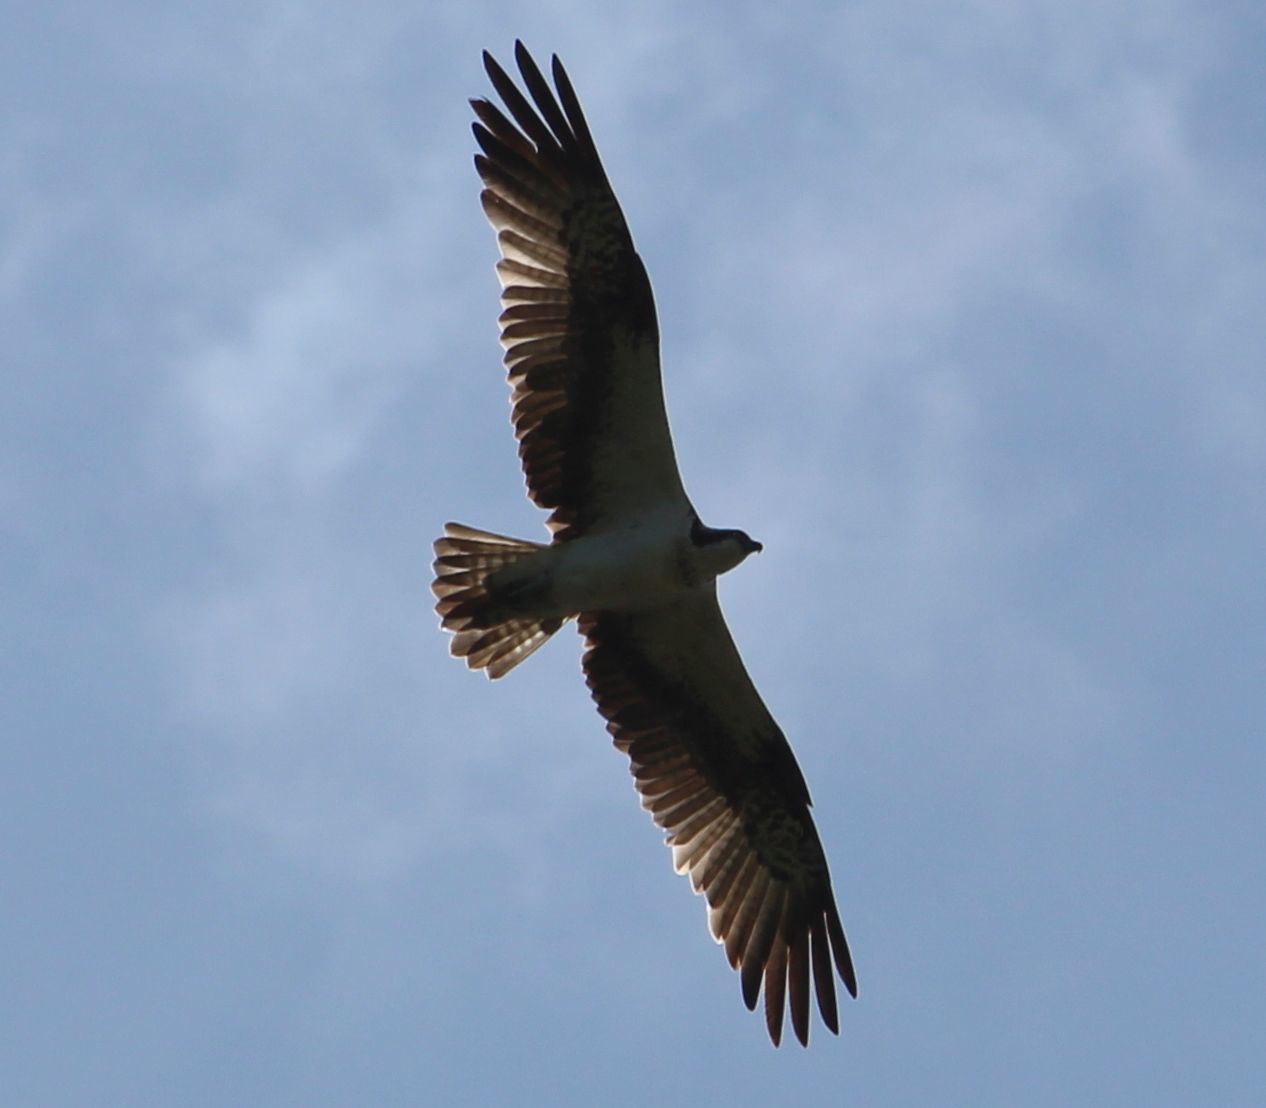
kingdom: Animalia
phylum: Chordata
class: Aves
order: Accipitriformes
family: Pandionidae
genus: Pandion
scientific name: Pandion haliaetus
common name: Osprey
